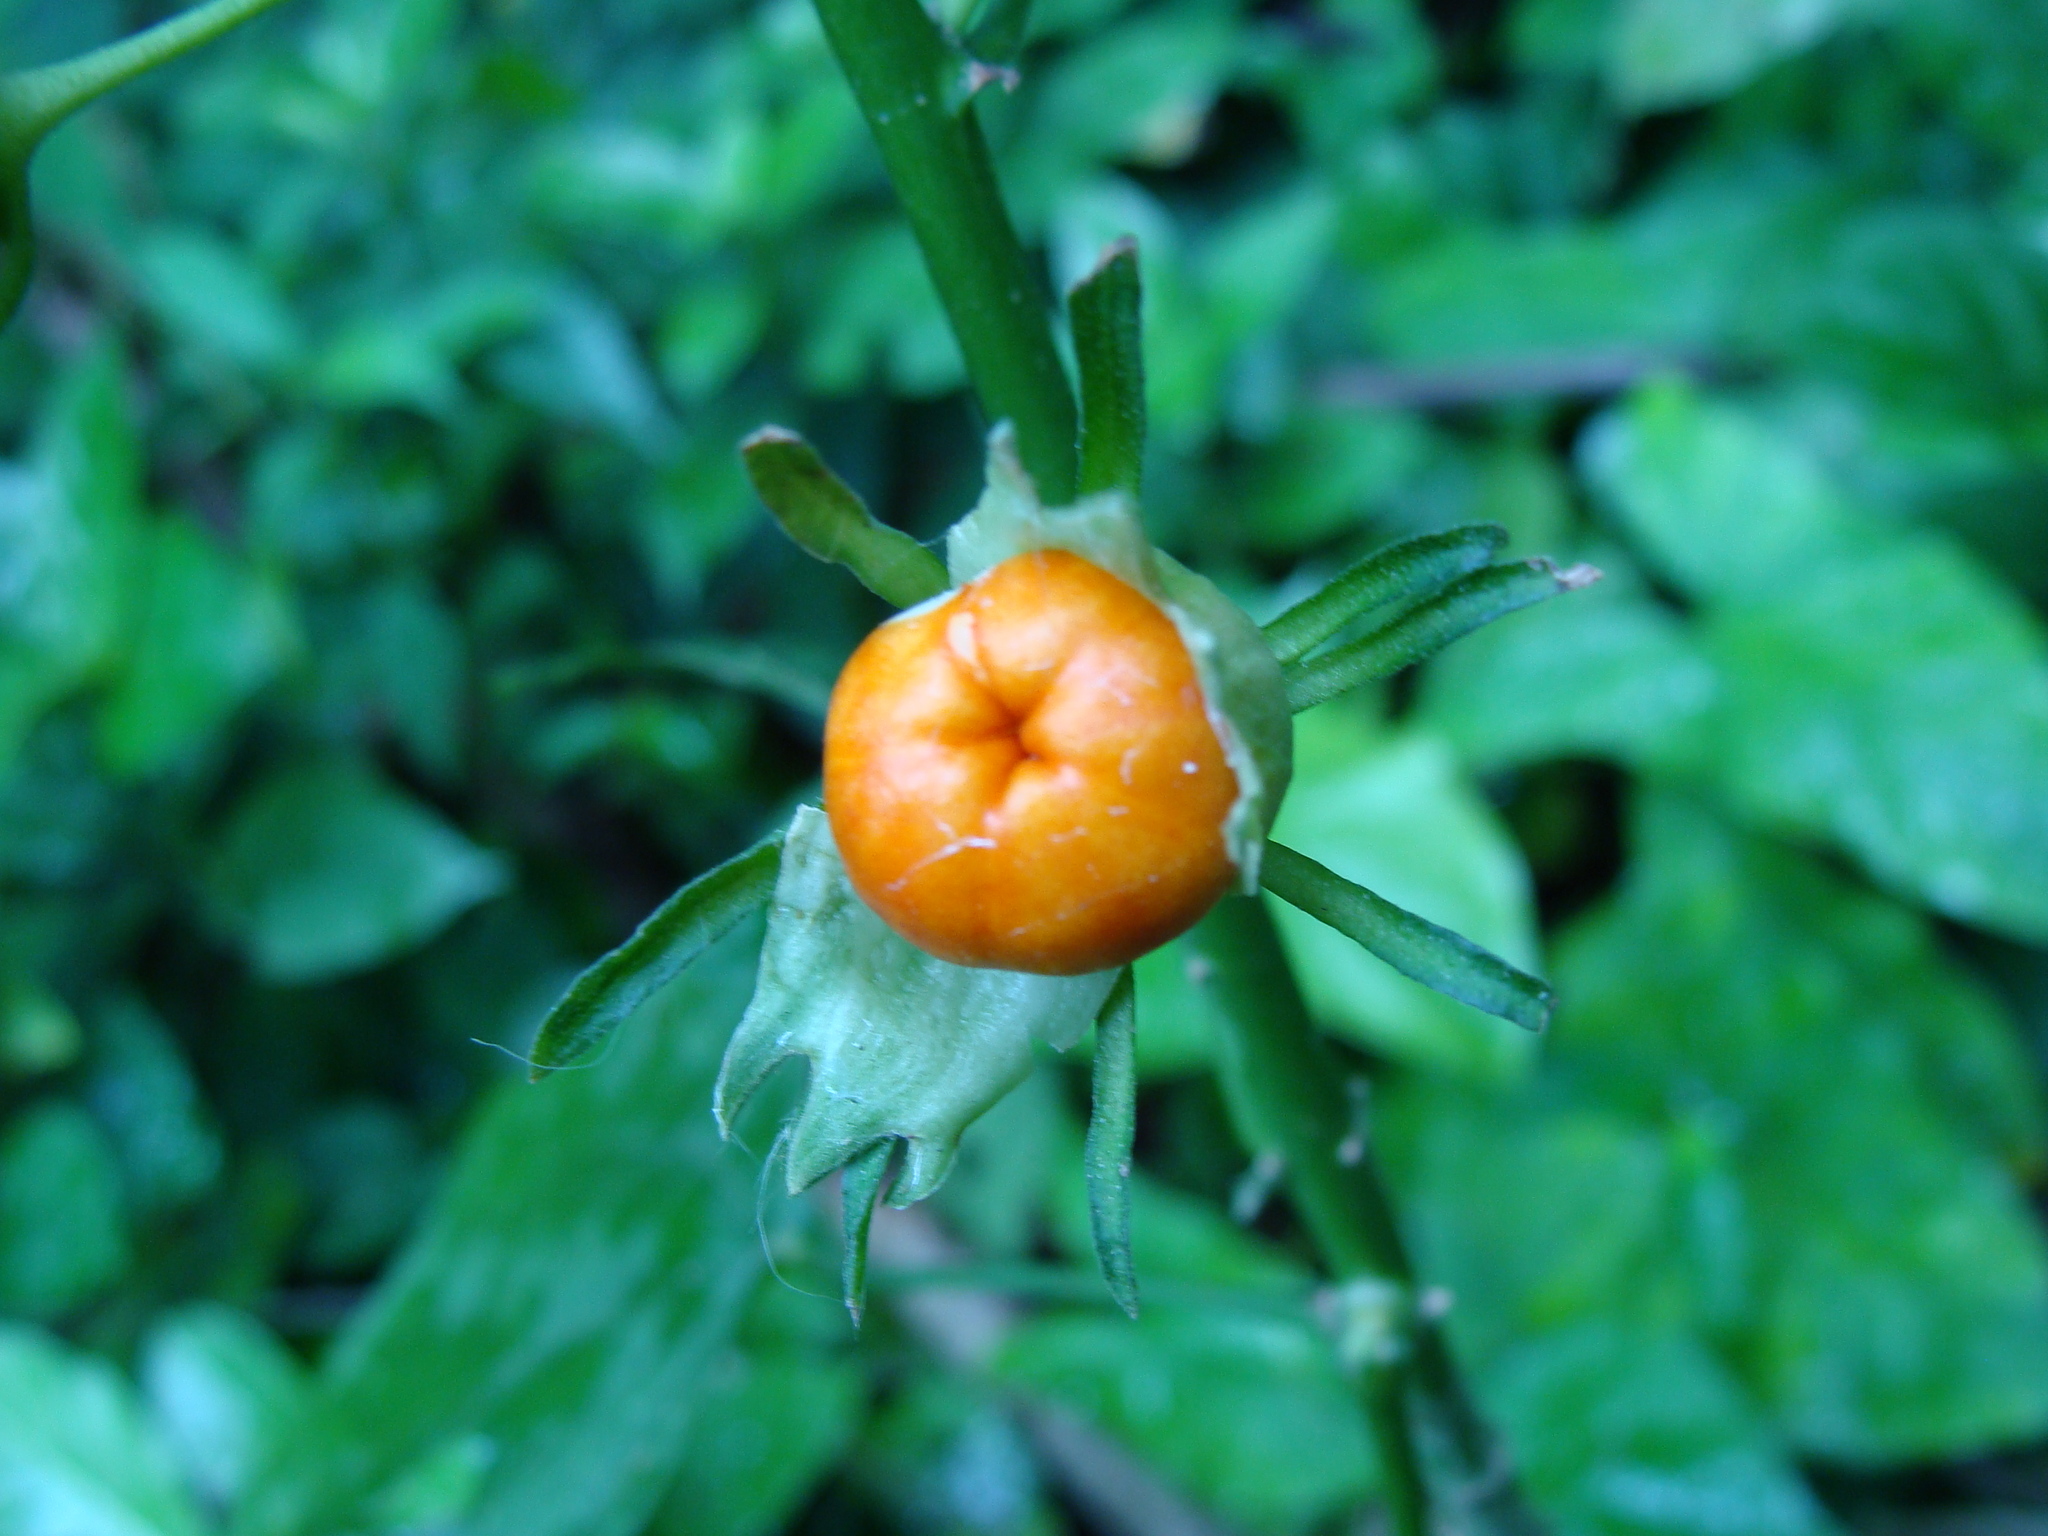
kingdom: Plantae
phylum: Tracheophyta
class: Magnoliopsida
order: Malvales
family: Malvaceae
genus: Malvaviscus
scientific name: Malvaviscus arboreus
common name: Wax mallow
